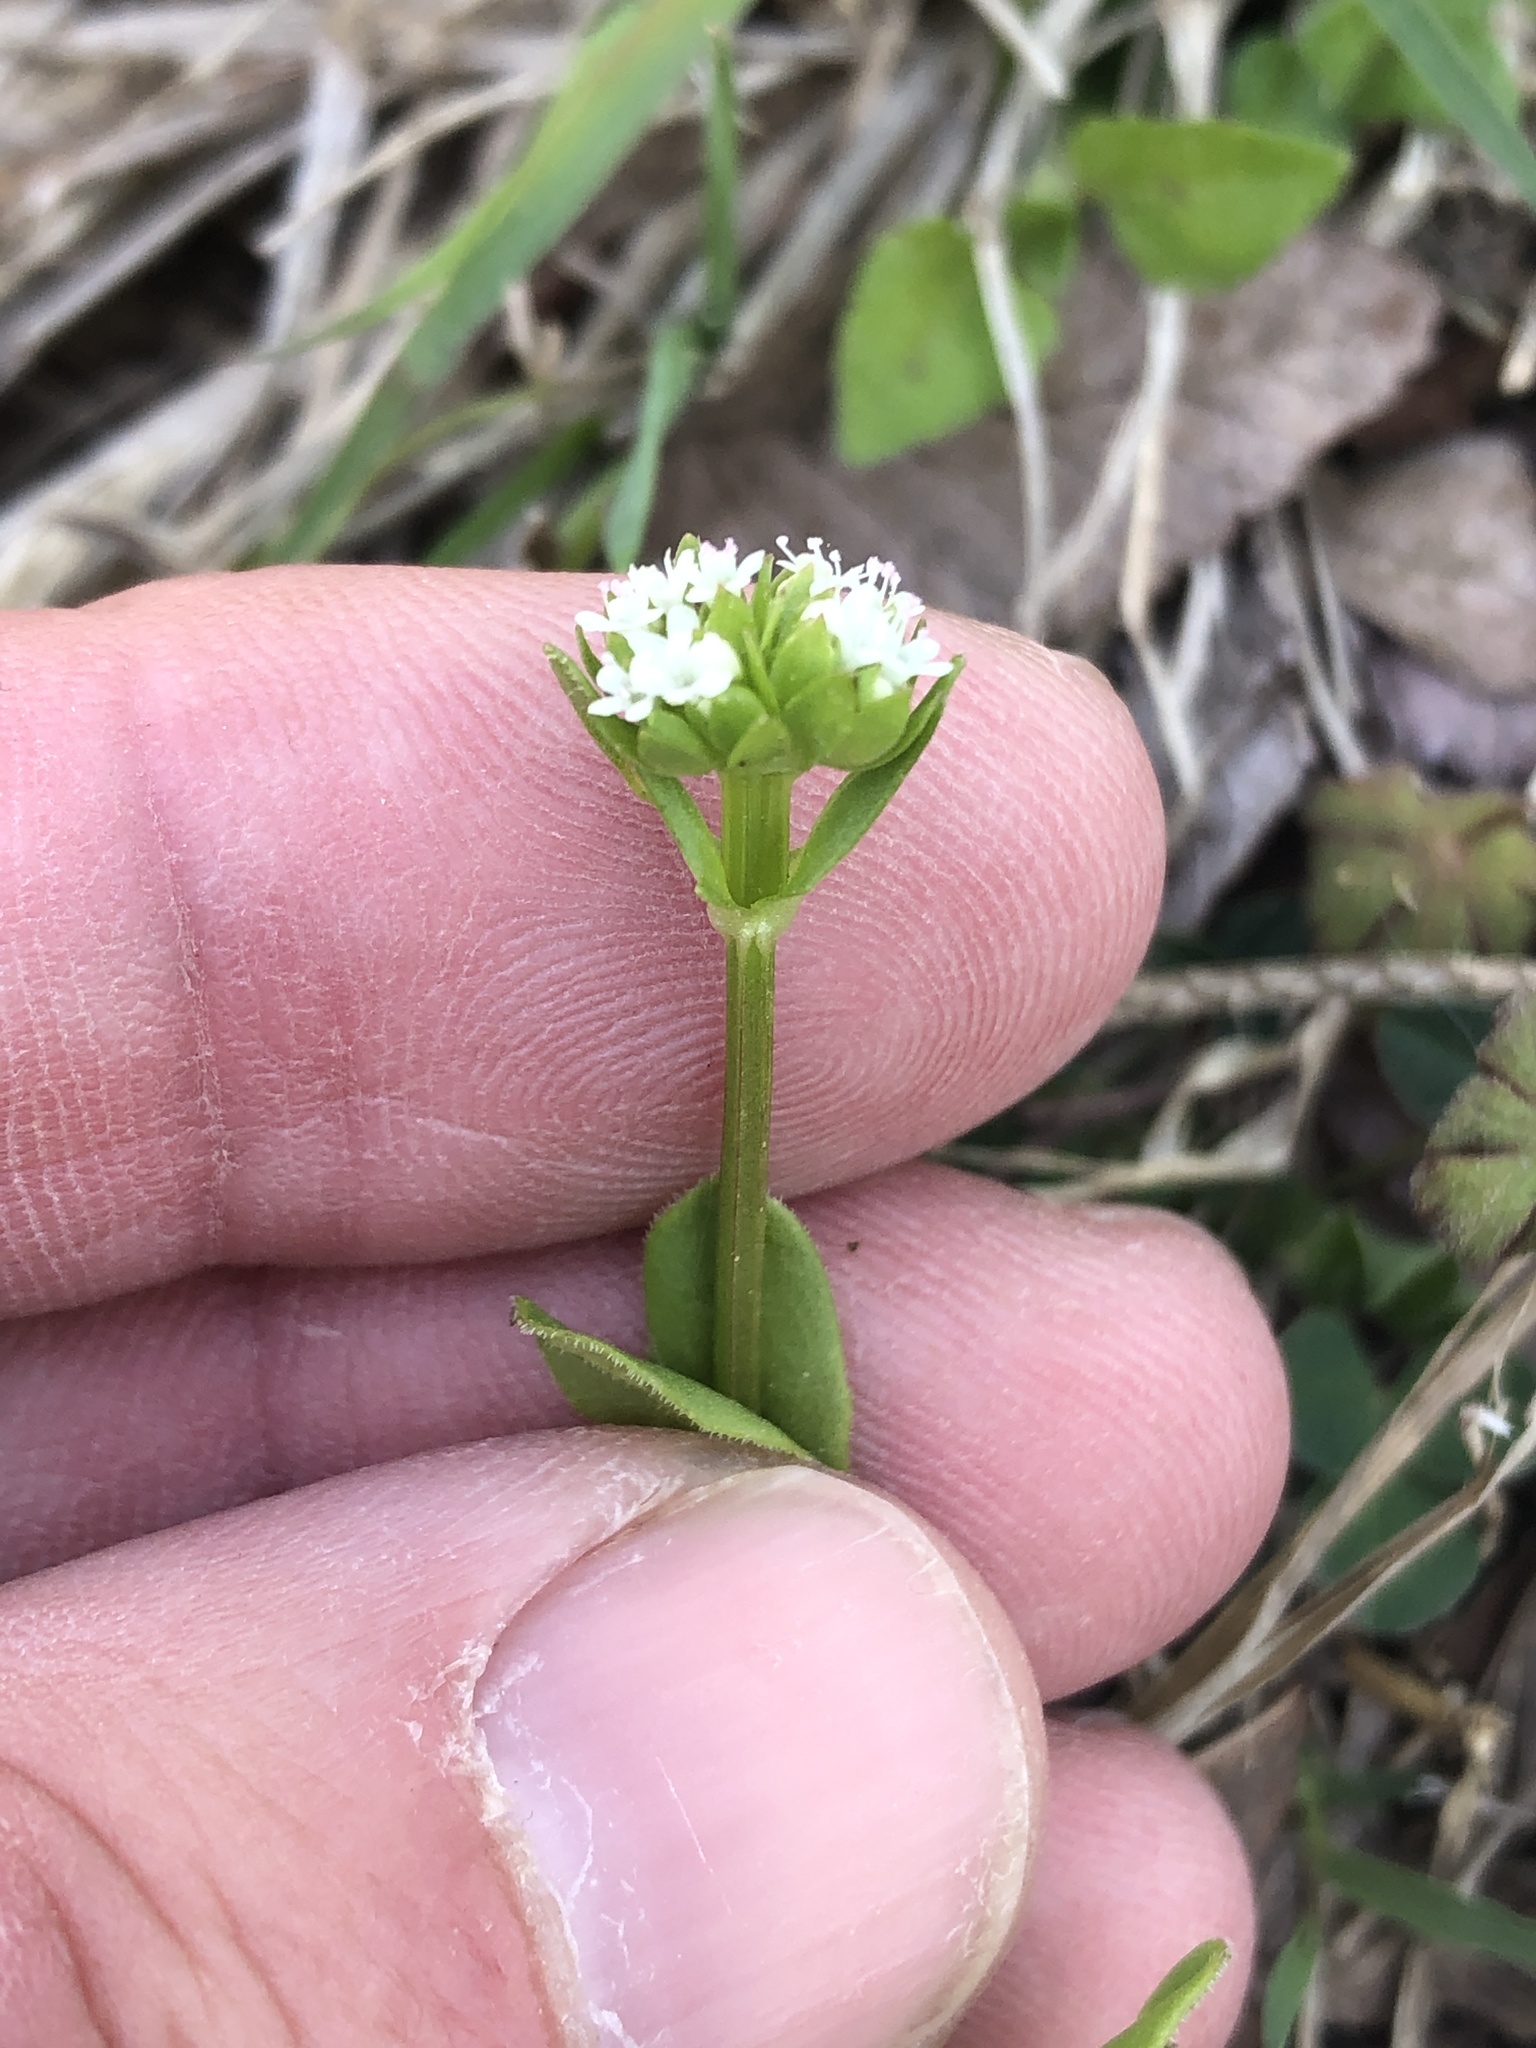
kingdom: Plantae
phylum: Tracheophyta
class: Magnoliopsida
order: Dipsacales
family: Caprifoliaceae
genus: Valerianella
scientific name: Valerianella radiata
